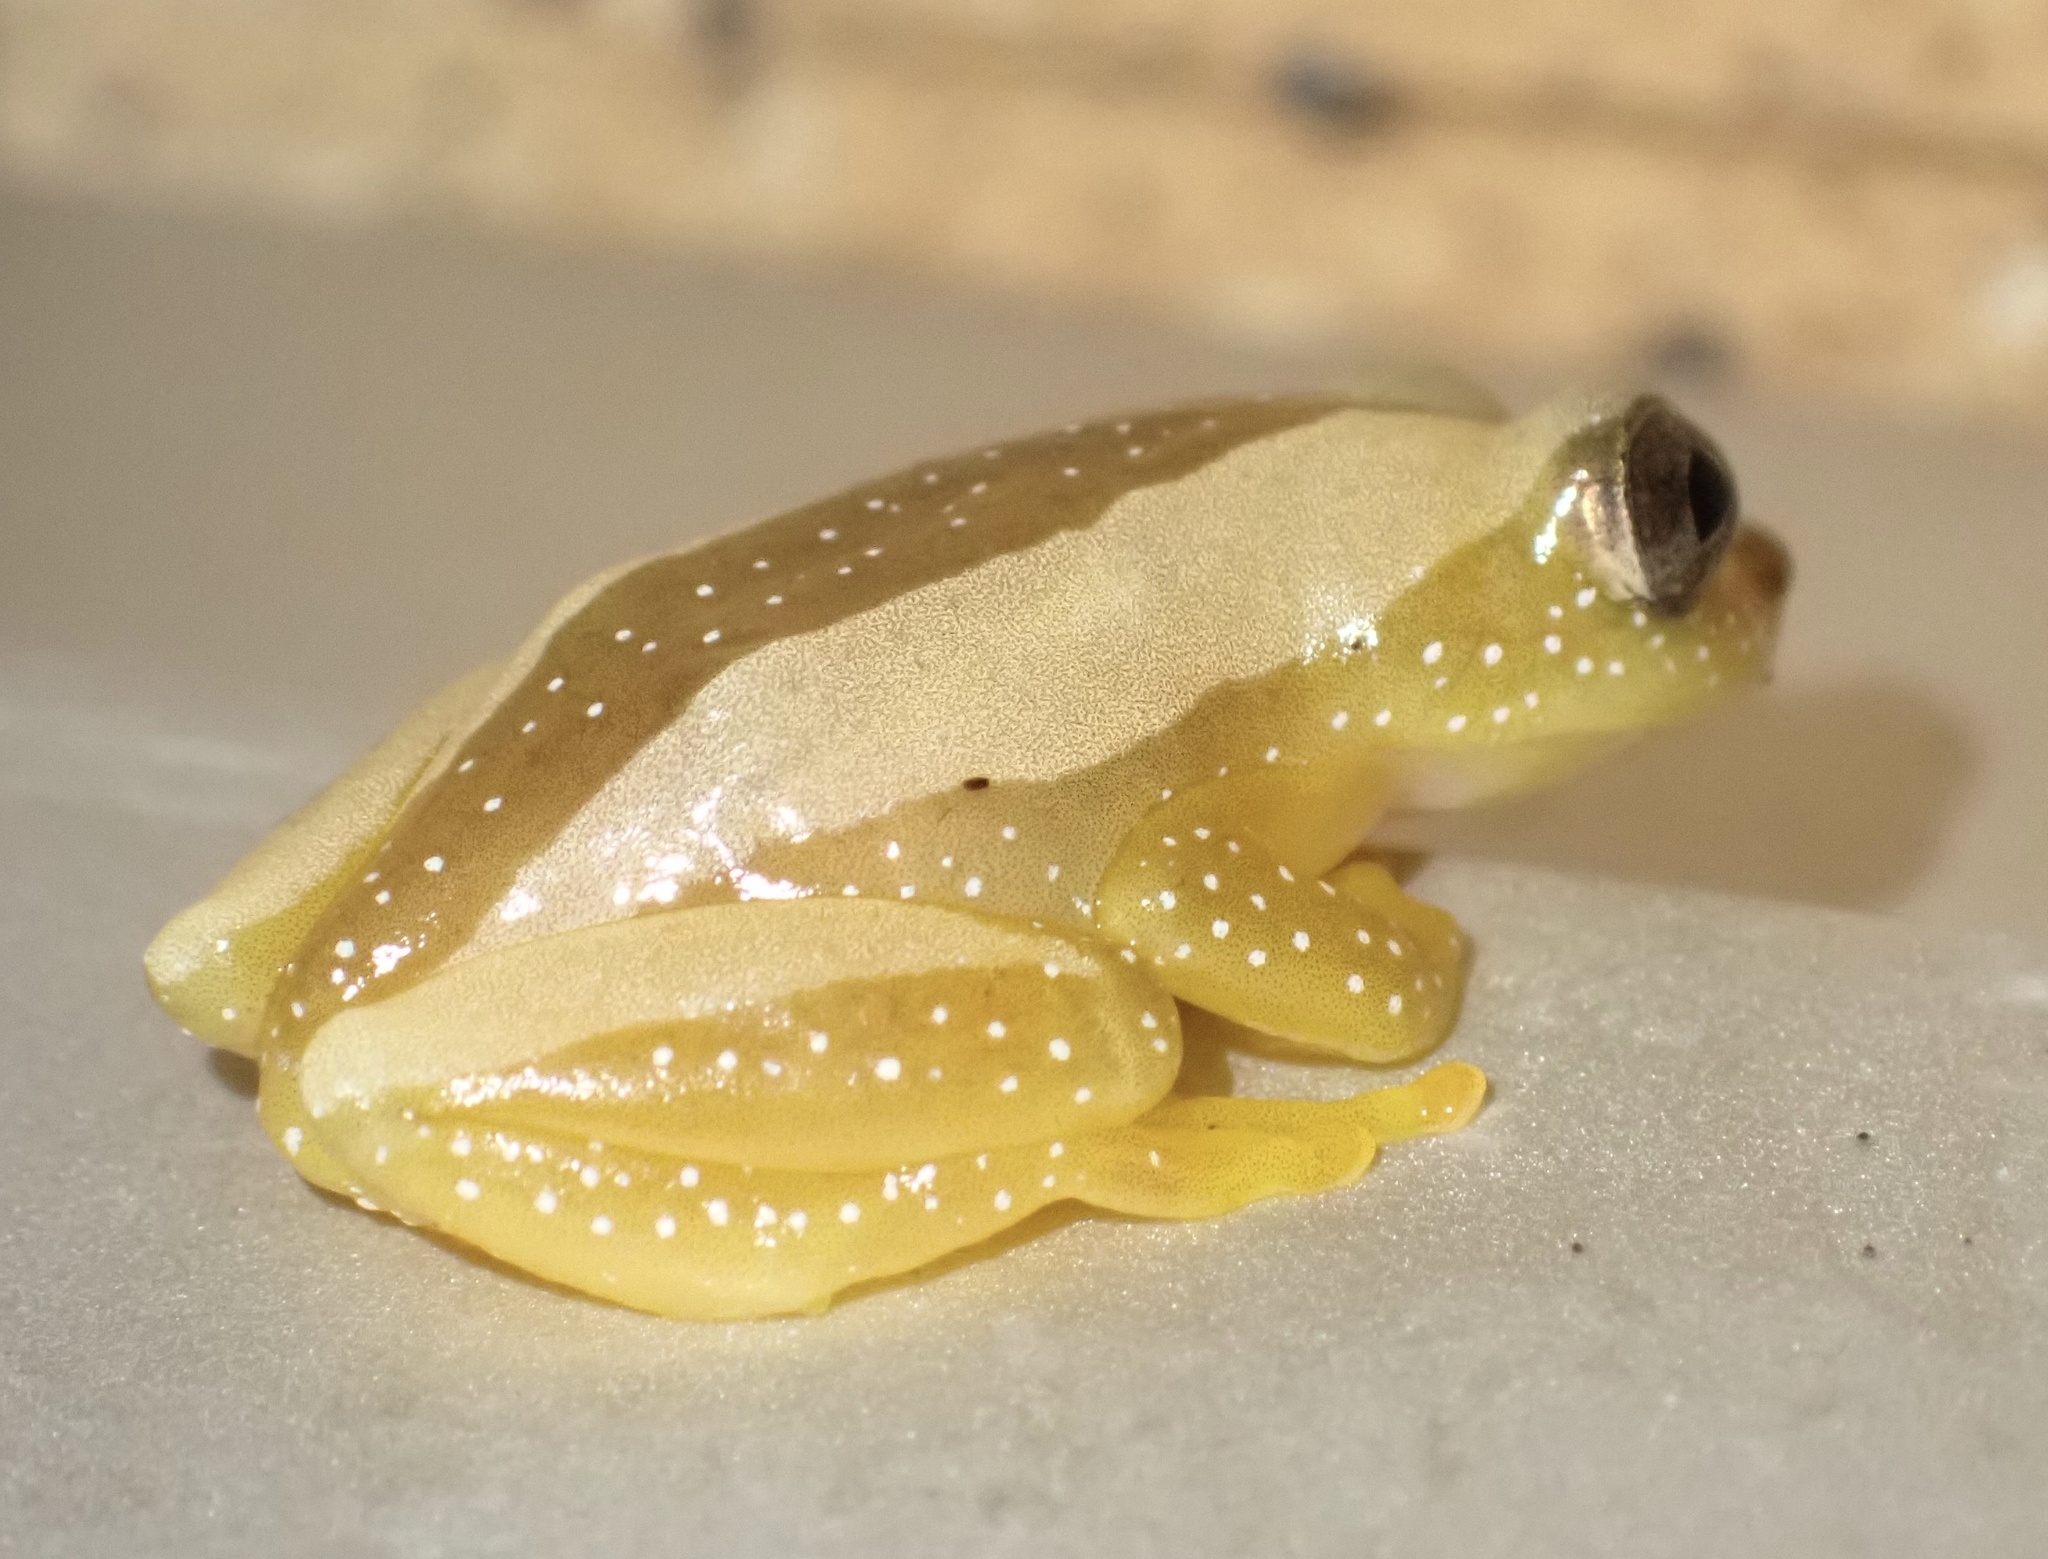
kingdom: Animalia
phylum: Chordata
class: Amphibia
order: Anura
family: Hyperoliidae
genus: Afrixalus
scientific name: Afrixalus fornasini
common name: Fornasini's spiny reed frog
